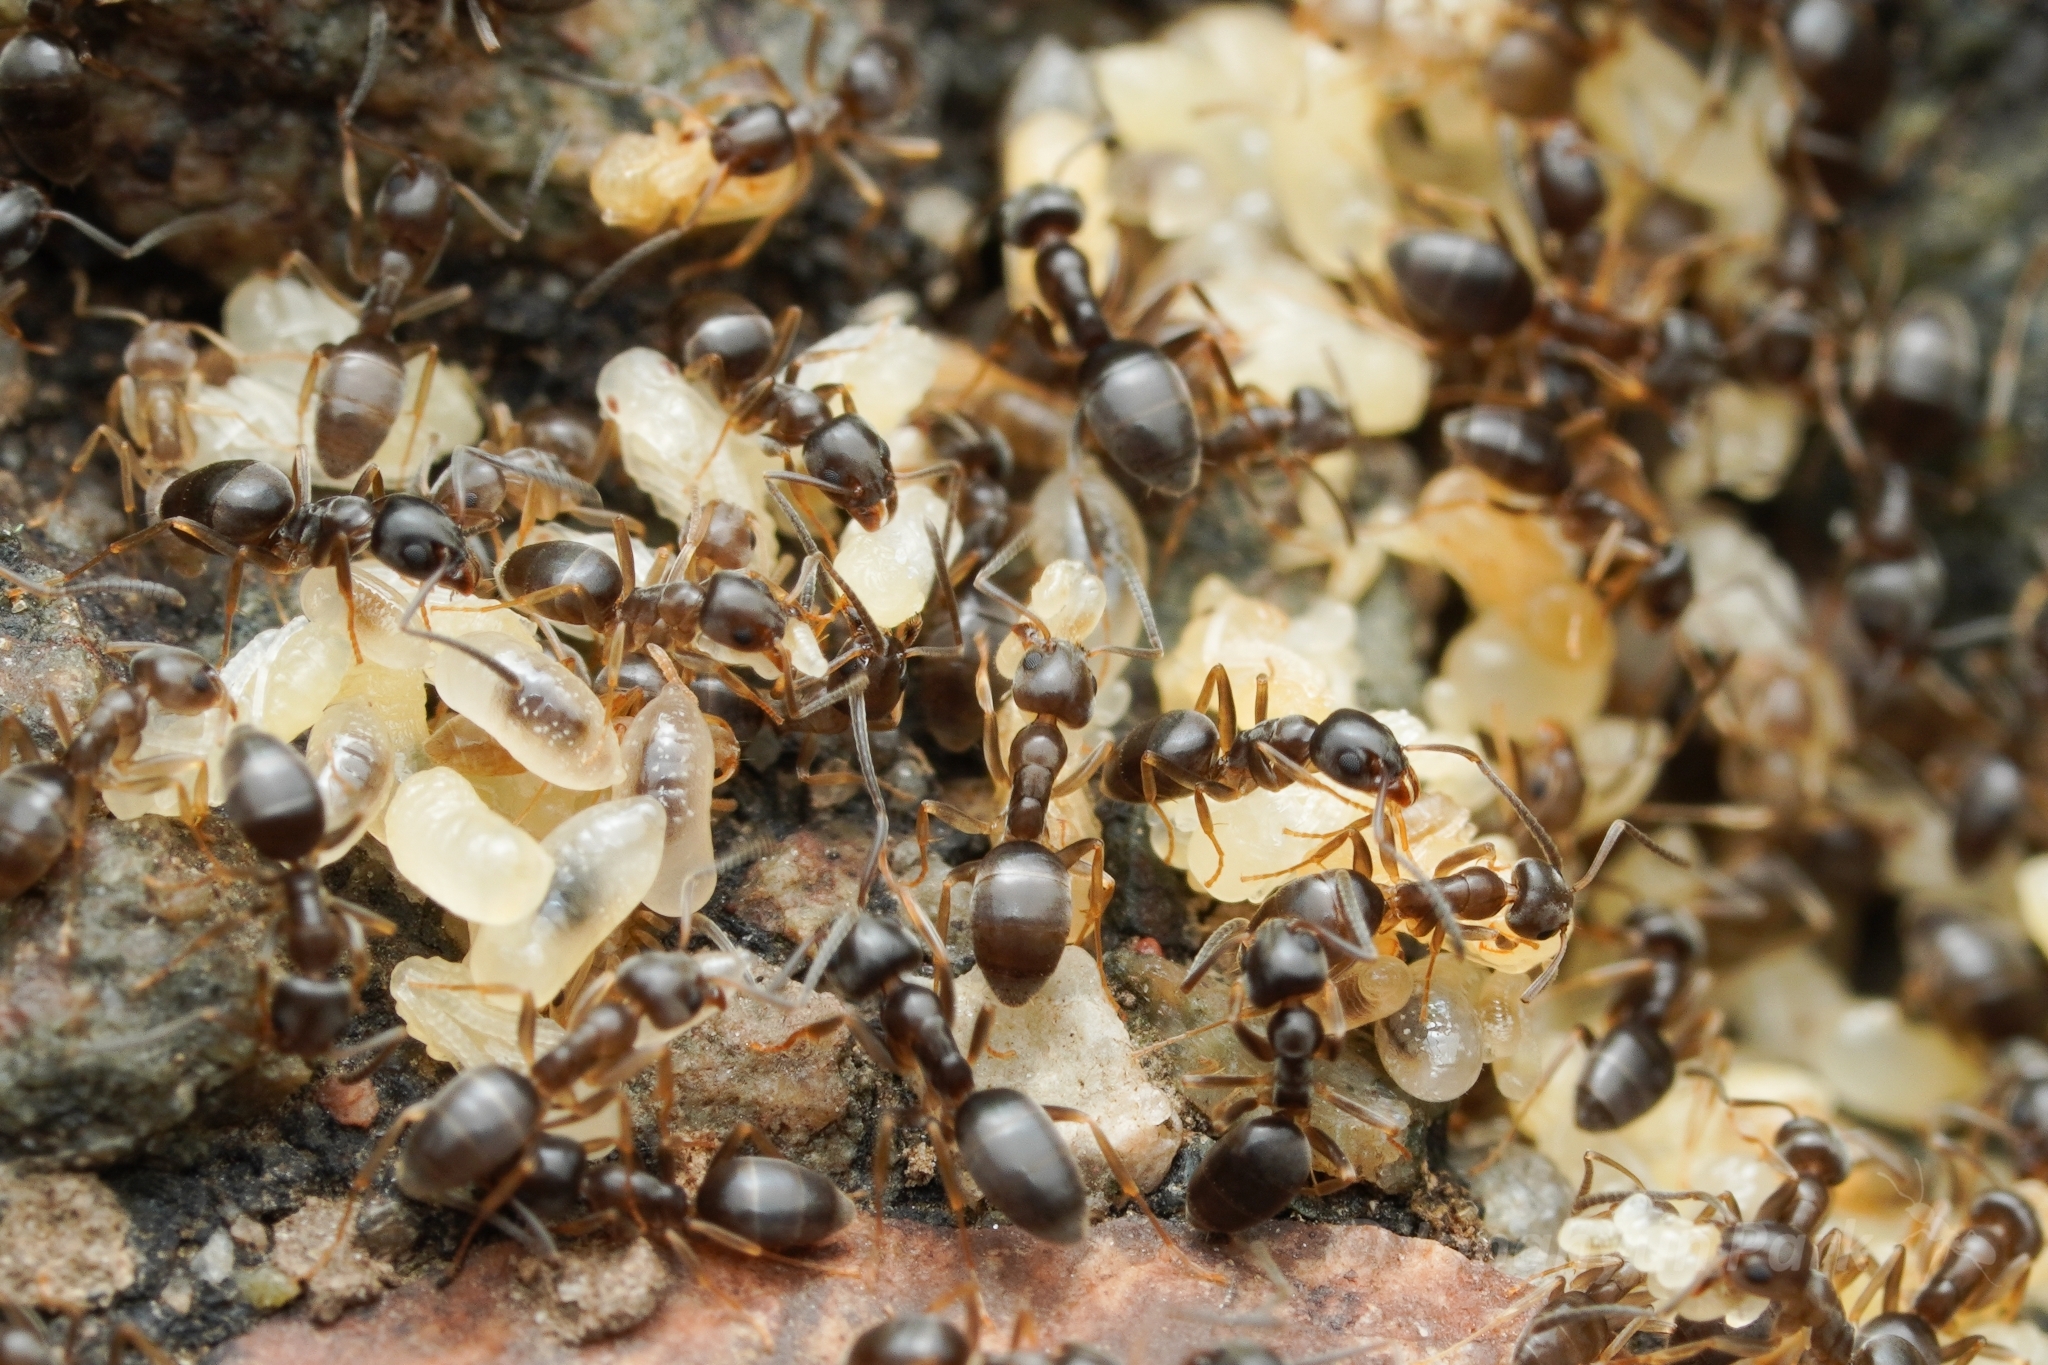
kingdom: Animalia
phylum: Arthropoda
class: Insecta
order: Hymenoptera
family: Formicidae
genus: Tapinoma
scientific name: Tapinoma sessile
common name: Odorous house ant
